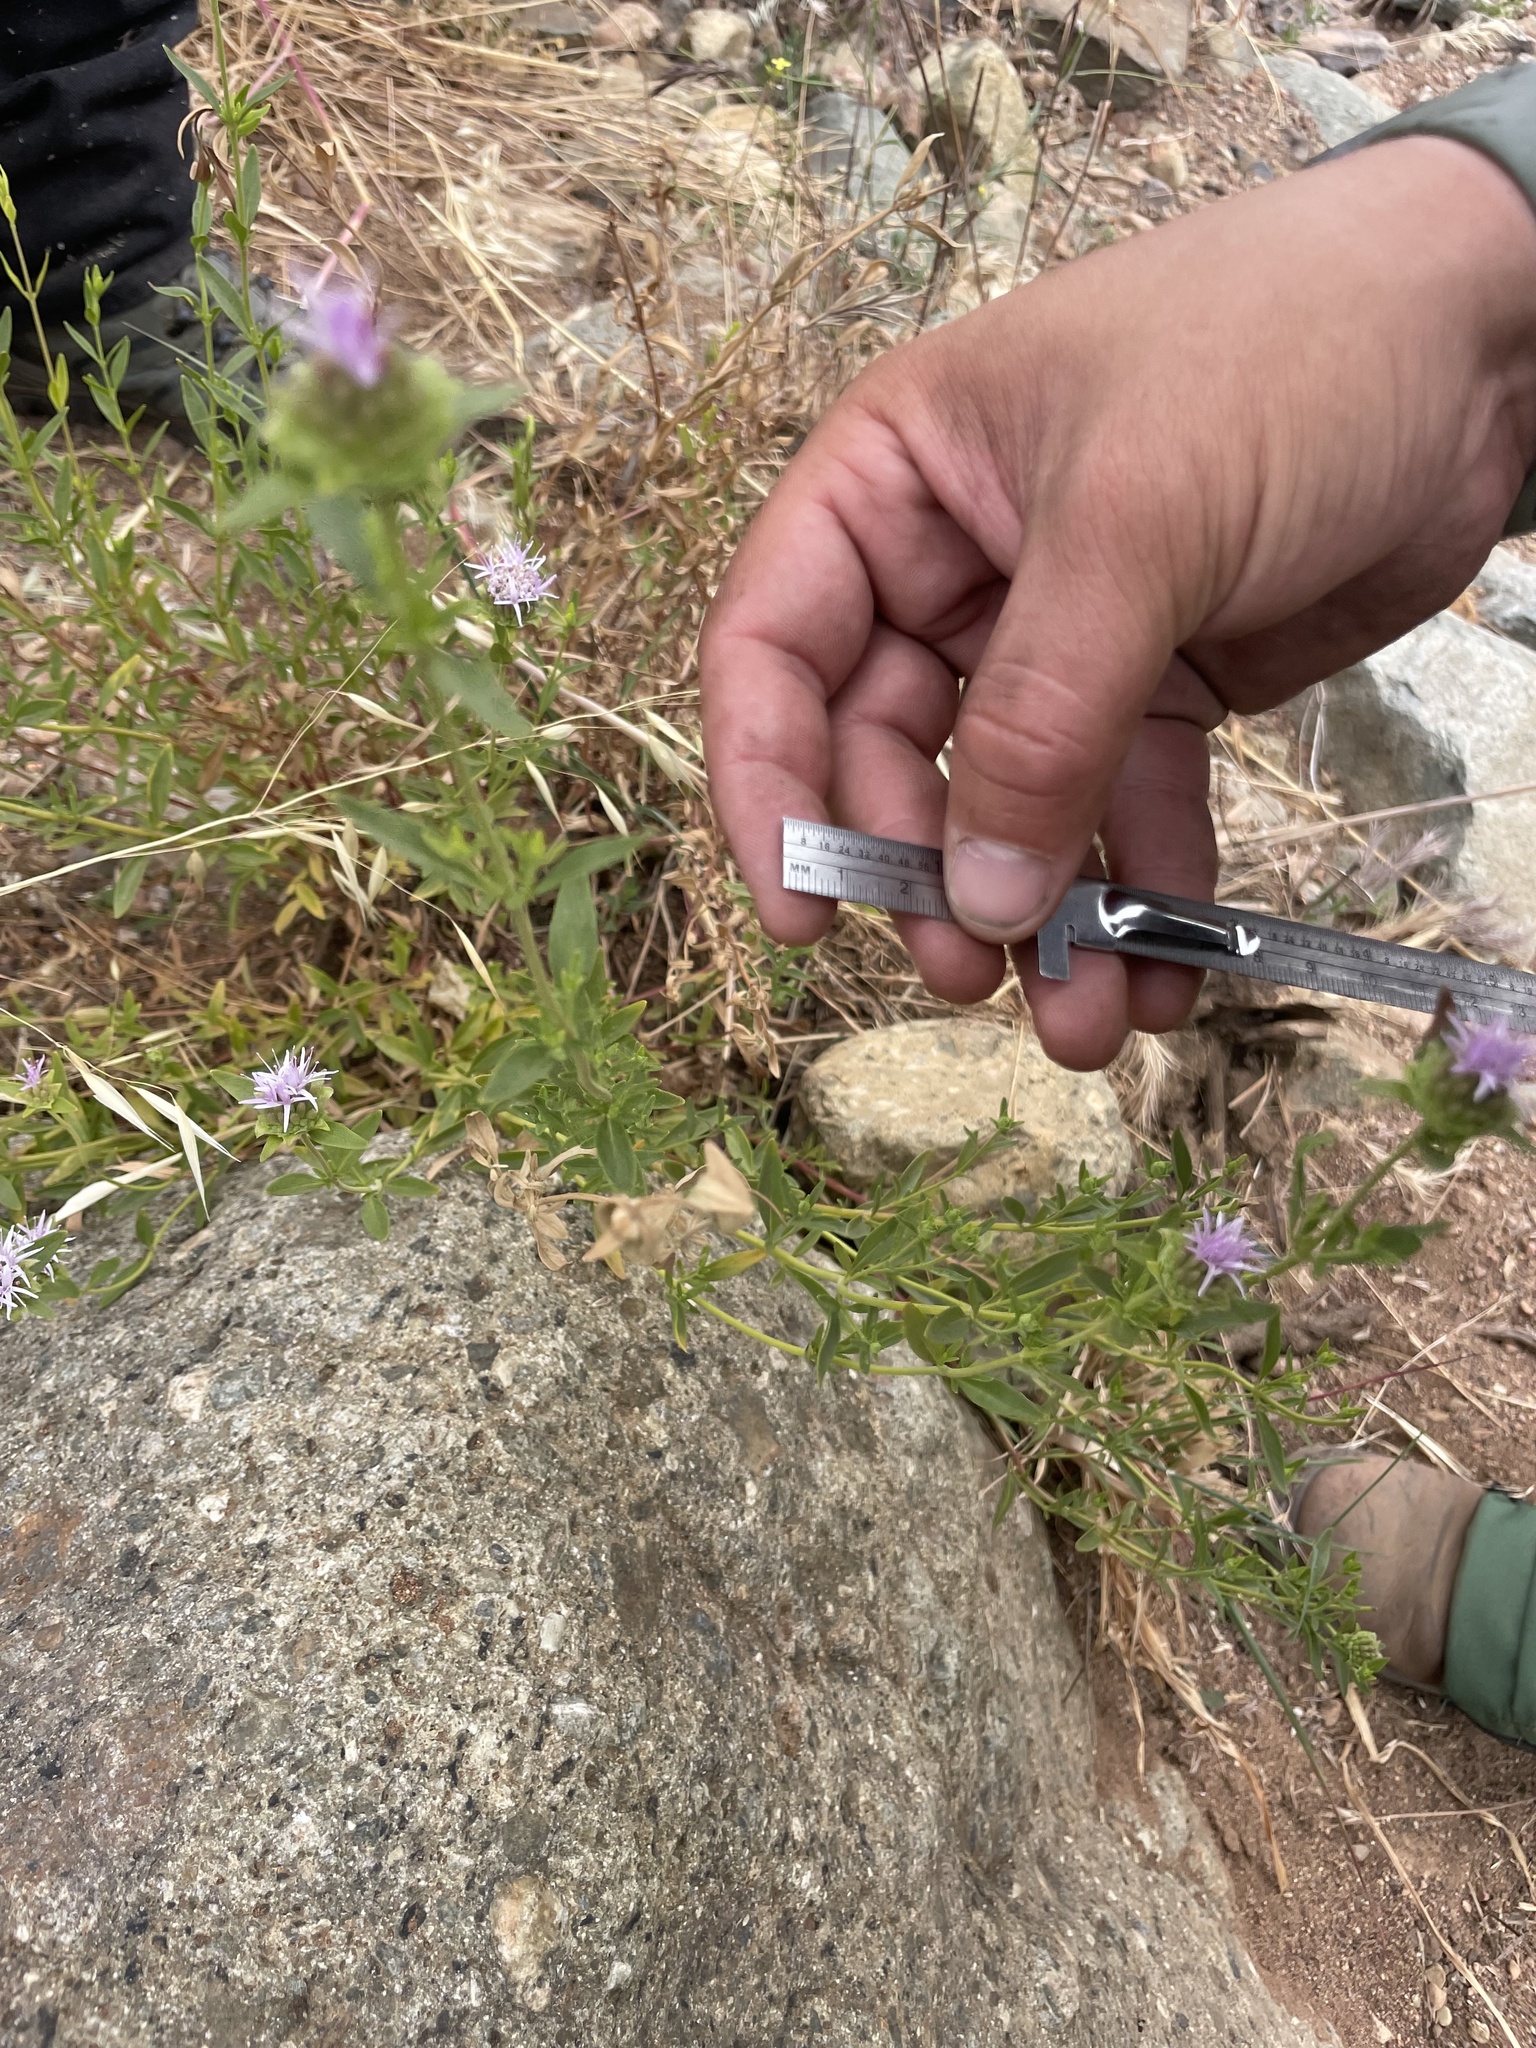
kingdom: Plantae
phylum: Tracheophyta
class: Magnoliopsida
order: Lamiales
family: Lamiaceae
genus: Monardella
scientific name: Monardella stoneana
